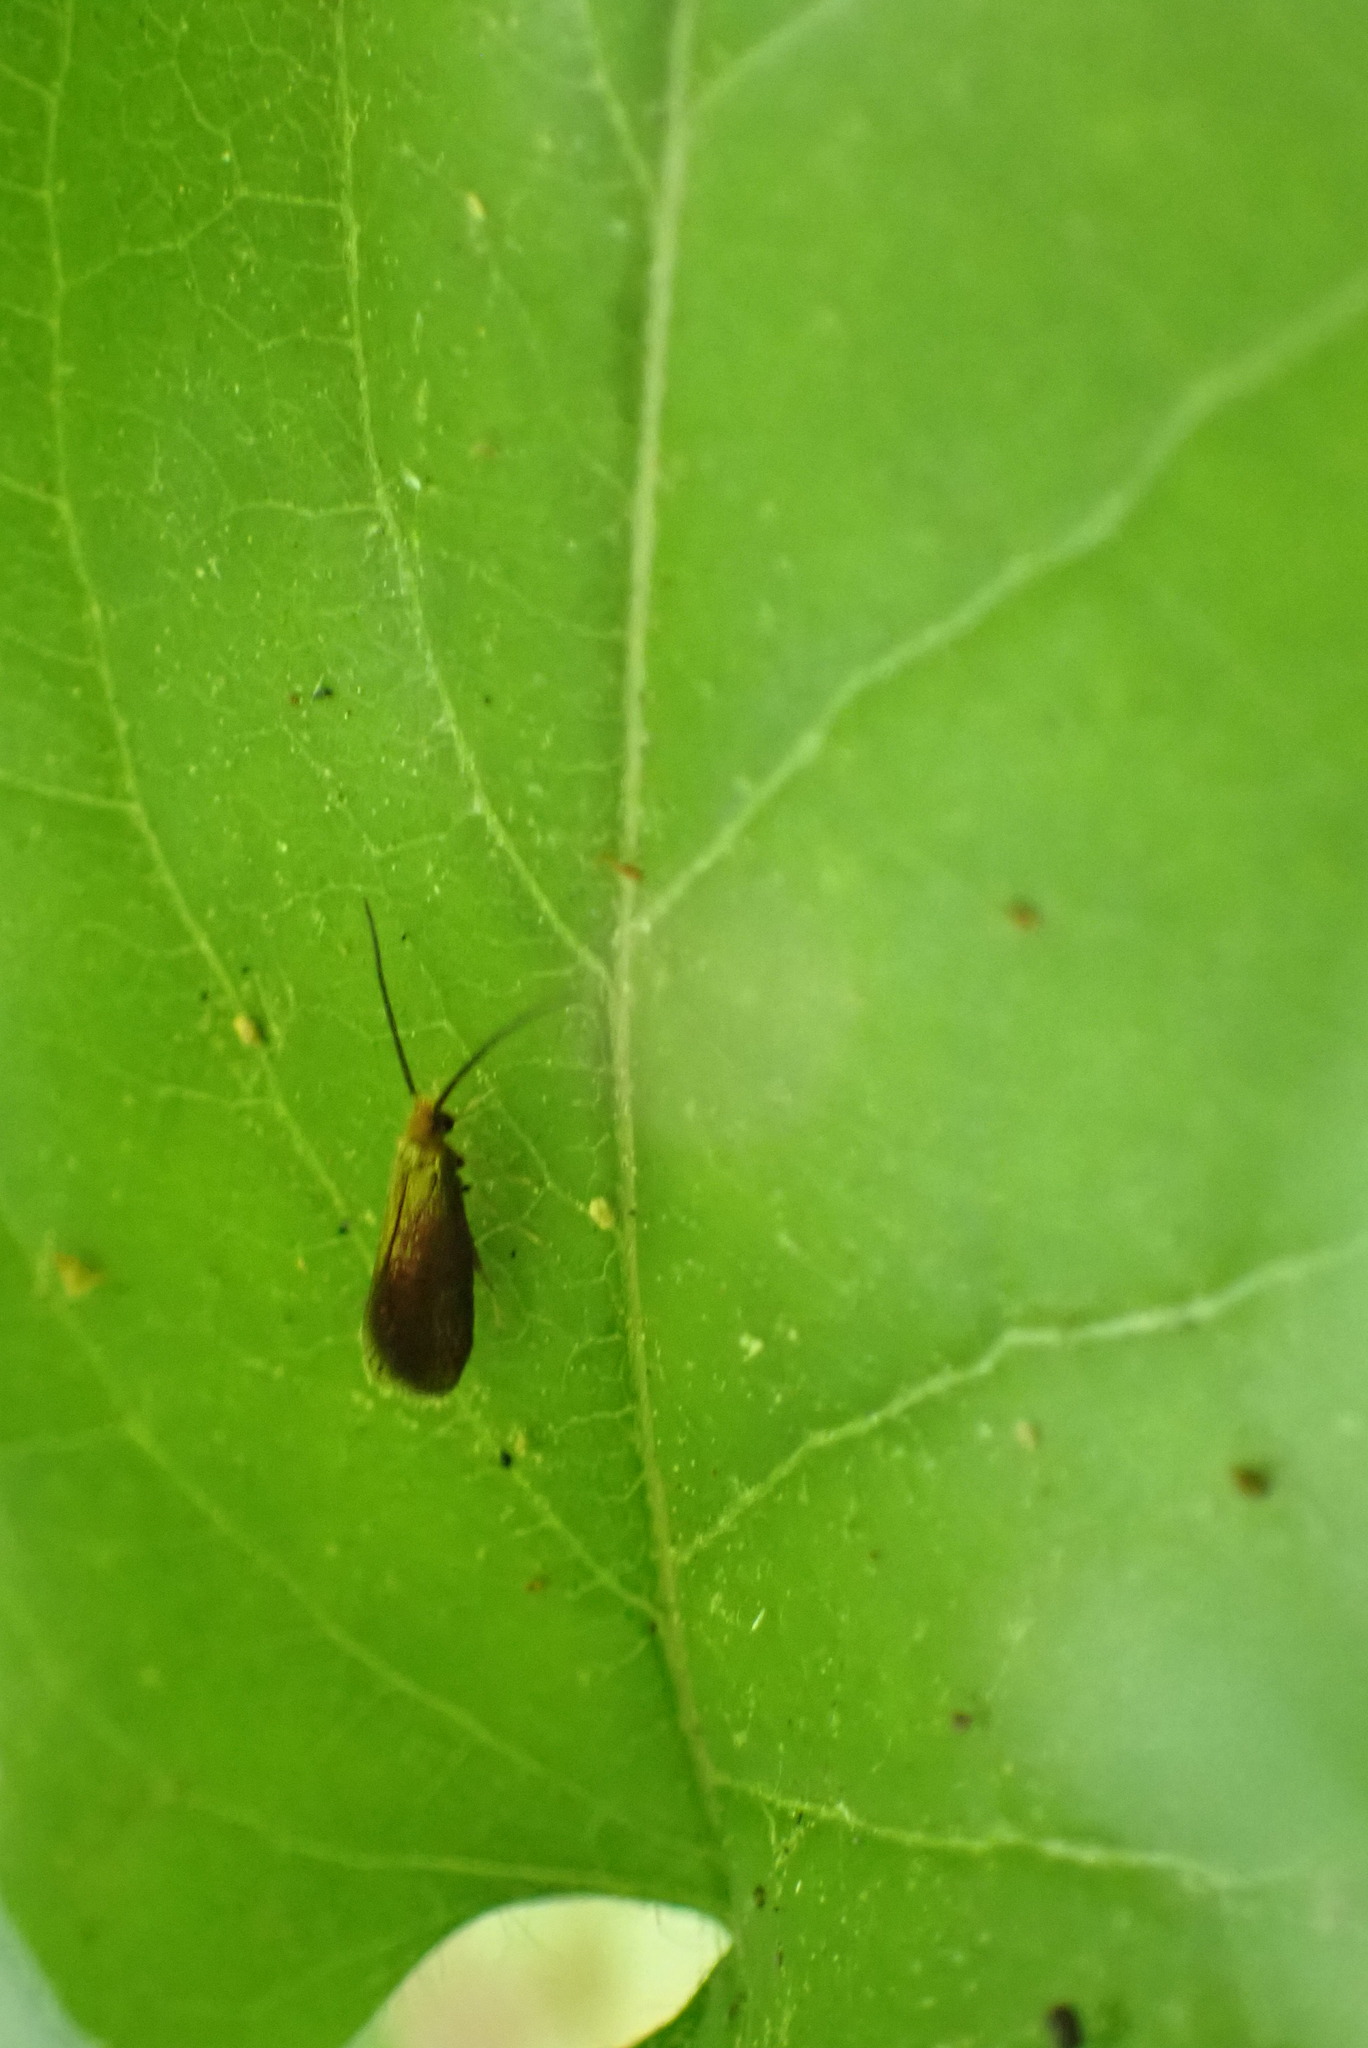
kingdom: Animalia
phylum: Arthropoda
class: Insecta
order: Lepidoptera
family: Micropterigidae
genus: Epimartyria
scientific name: Epimartyria auricrinella
